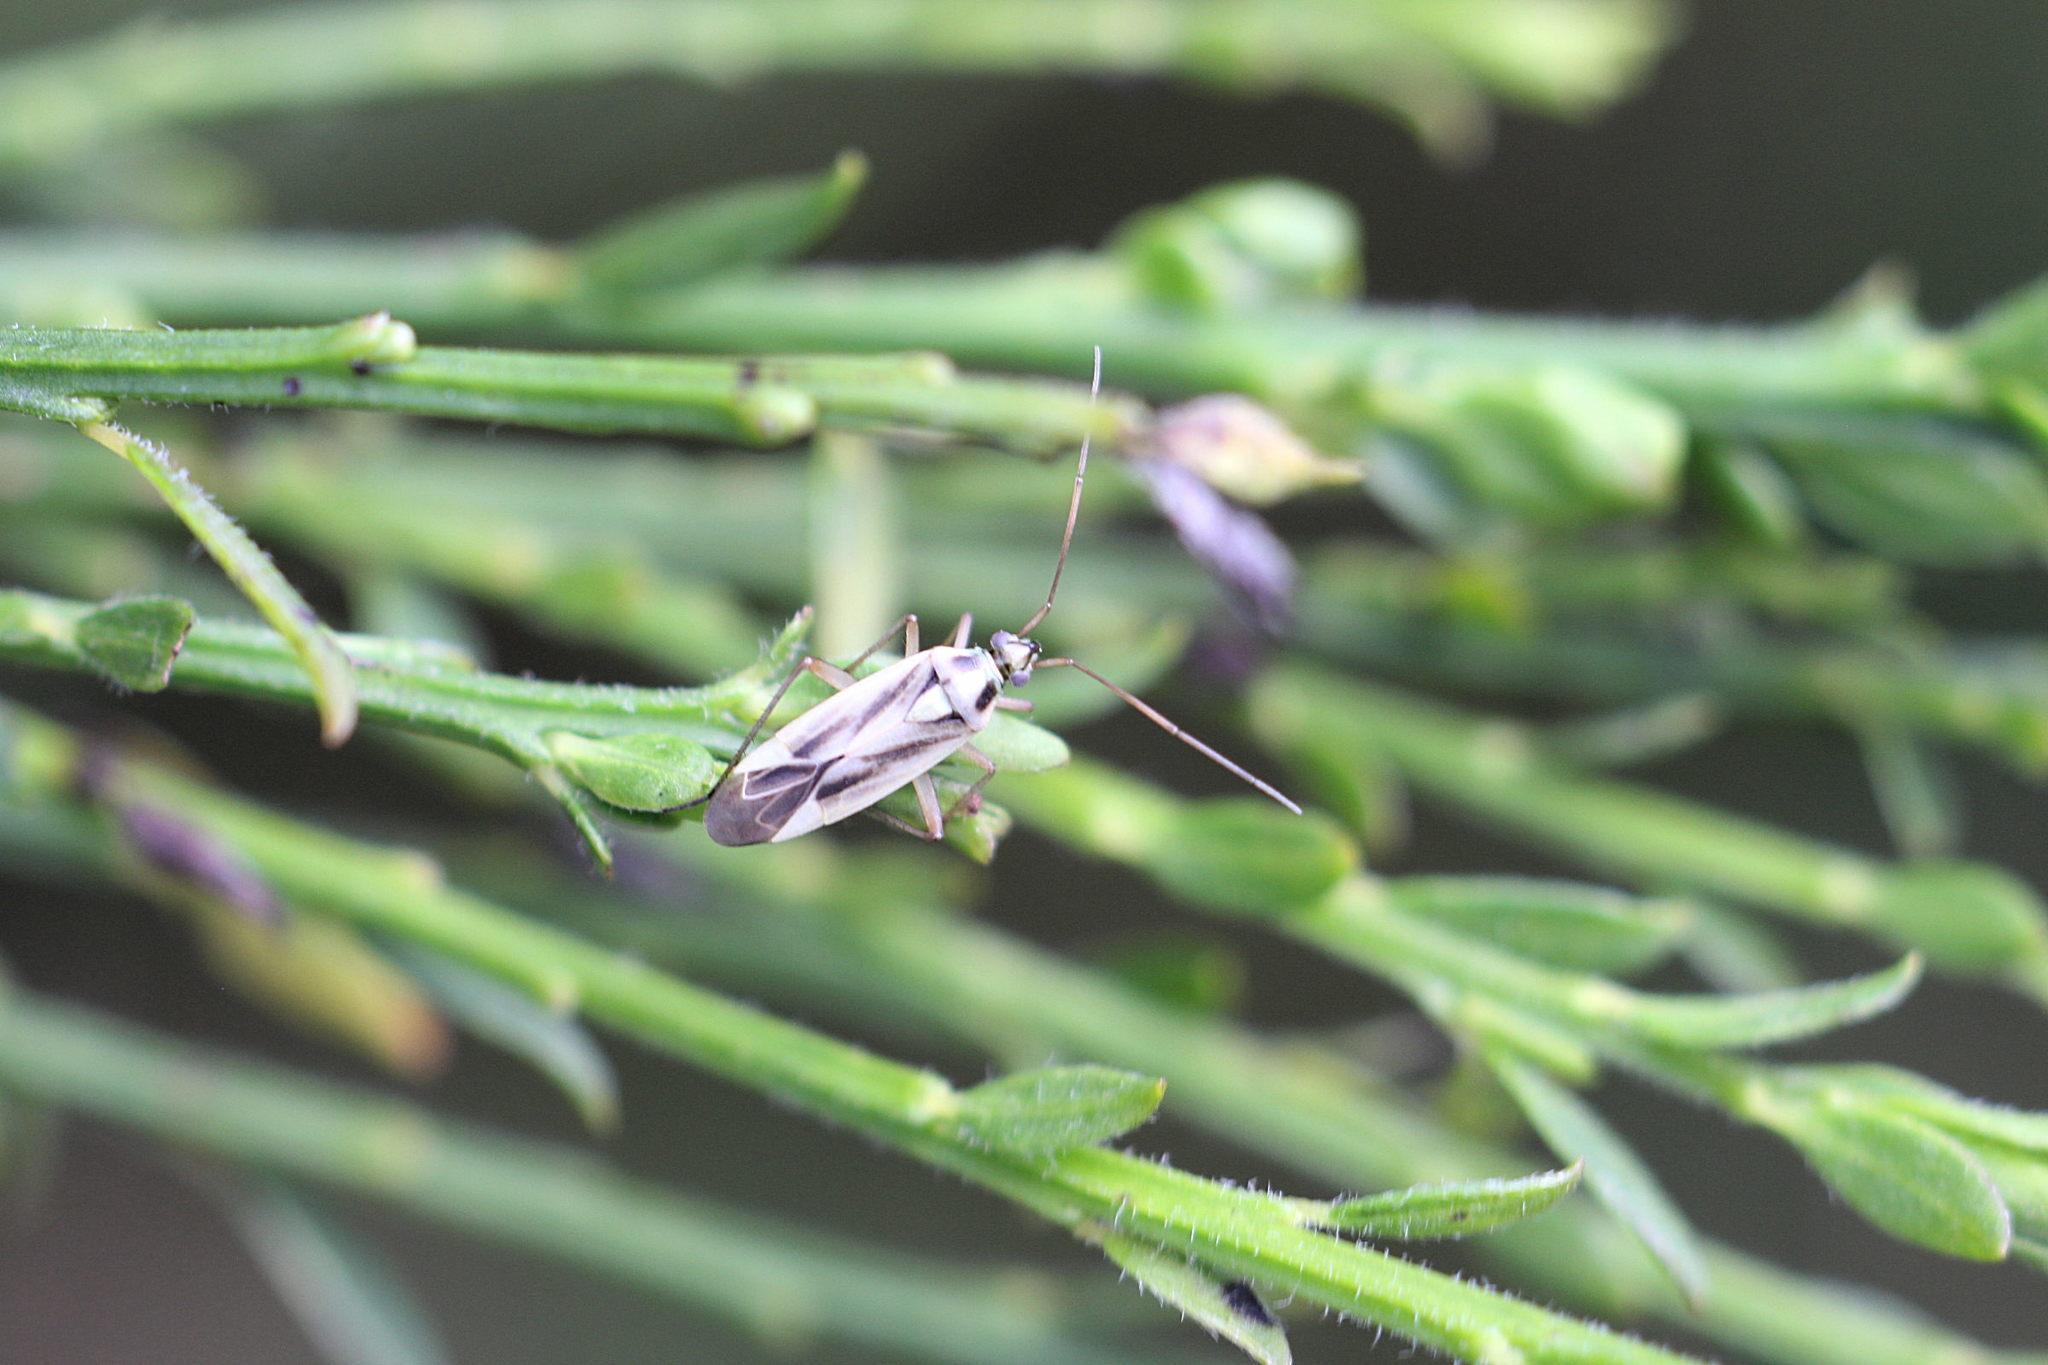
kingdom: Animalia
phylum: Arthropoda
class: Insecta
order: Hemiptera
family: Miridae
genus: Stenotus
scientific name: Stenotus binotatus
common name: Plant bug
